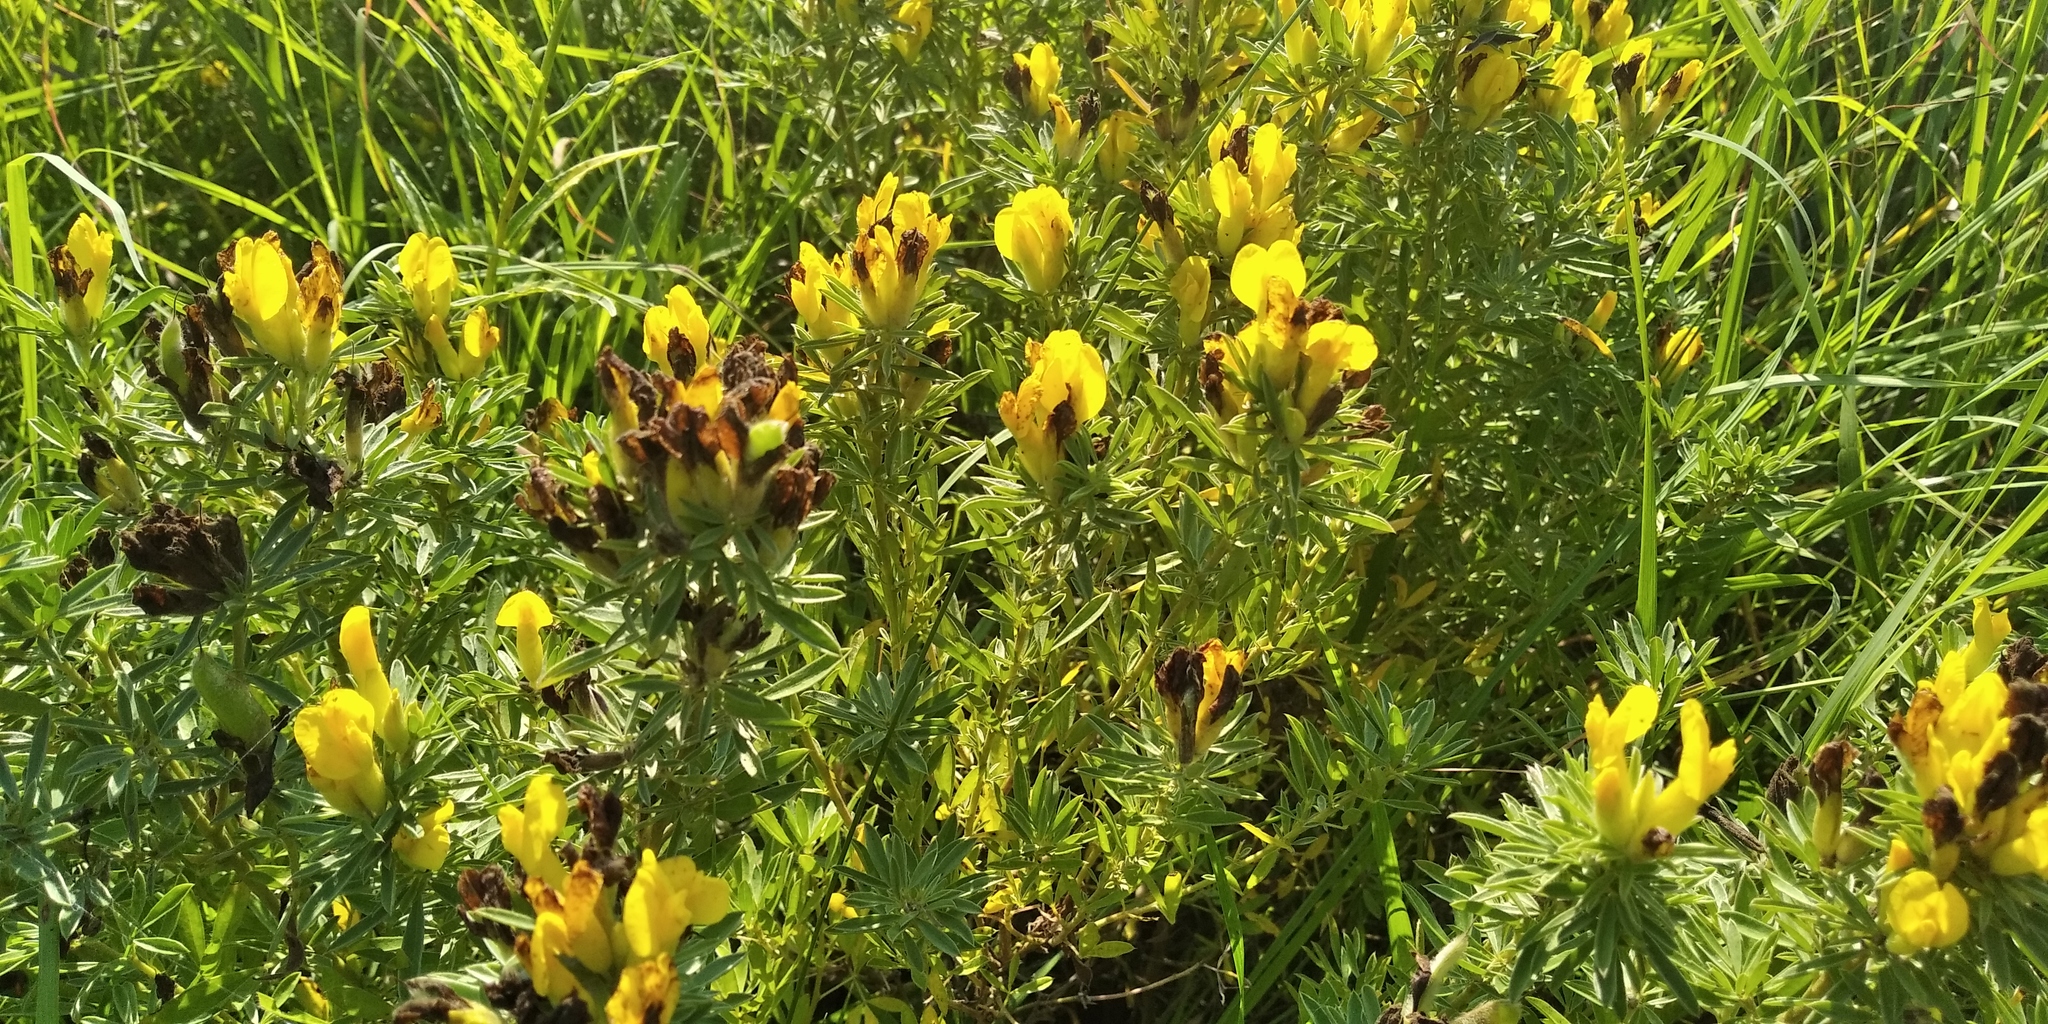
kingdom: Plantae
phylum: Tracheophyta
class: Magnoliopsida
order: Fabales
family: Fabaceae
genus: Chamaecytisus
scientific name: Chamaecytisus austriacus
